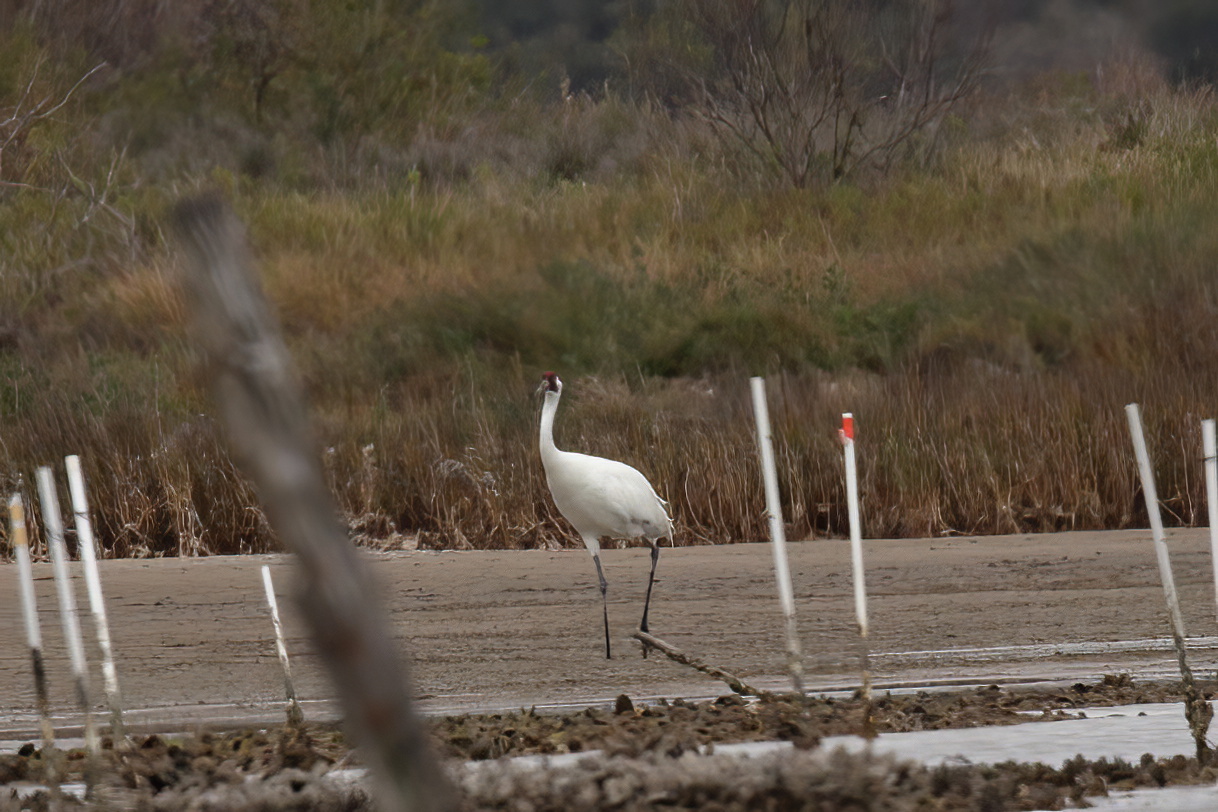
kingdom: Animalia
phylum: Chordata
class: Aves
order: Gruiformes
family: Gruidae
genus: Grus
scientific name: Grus americana
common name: Whooping crane
